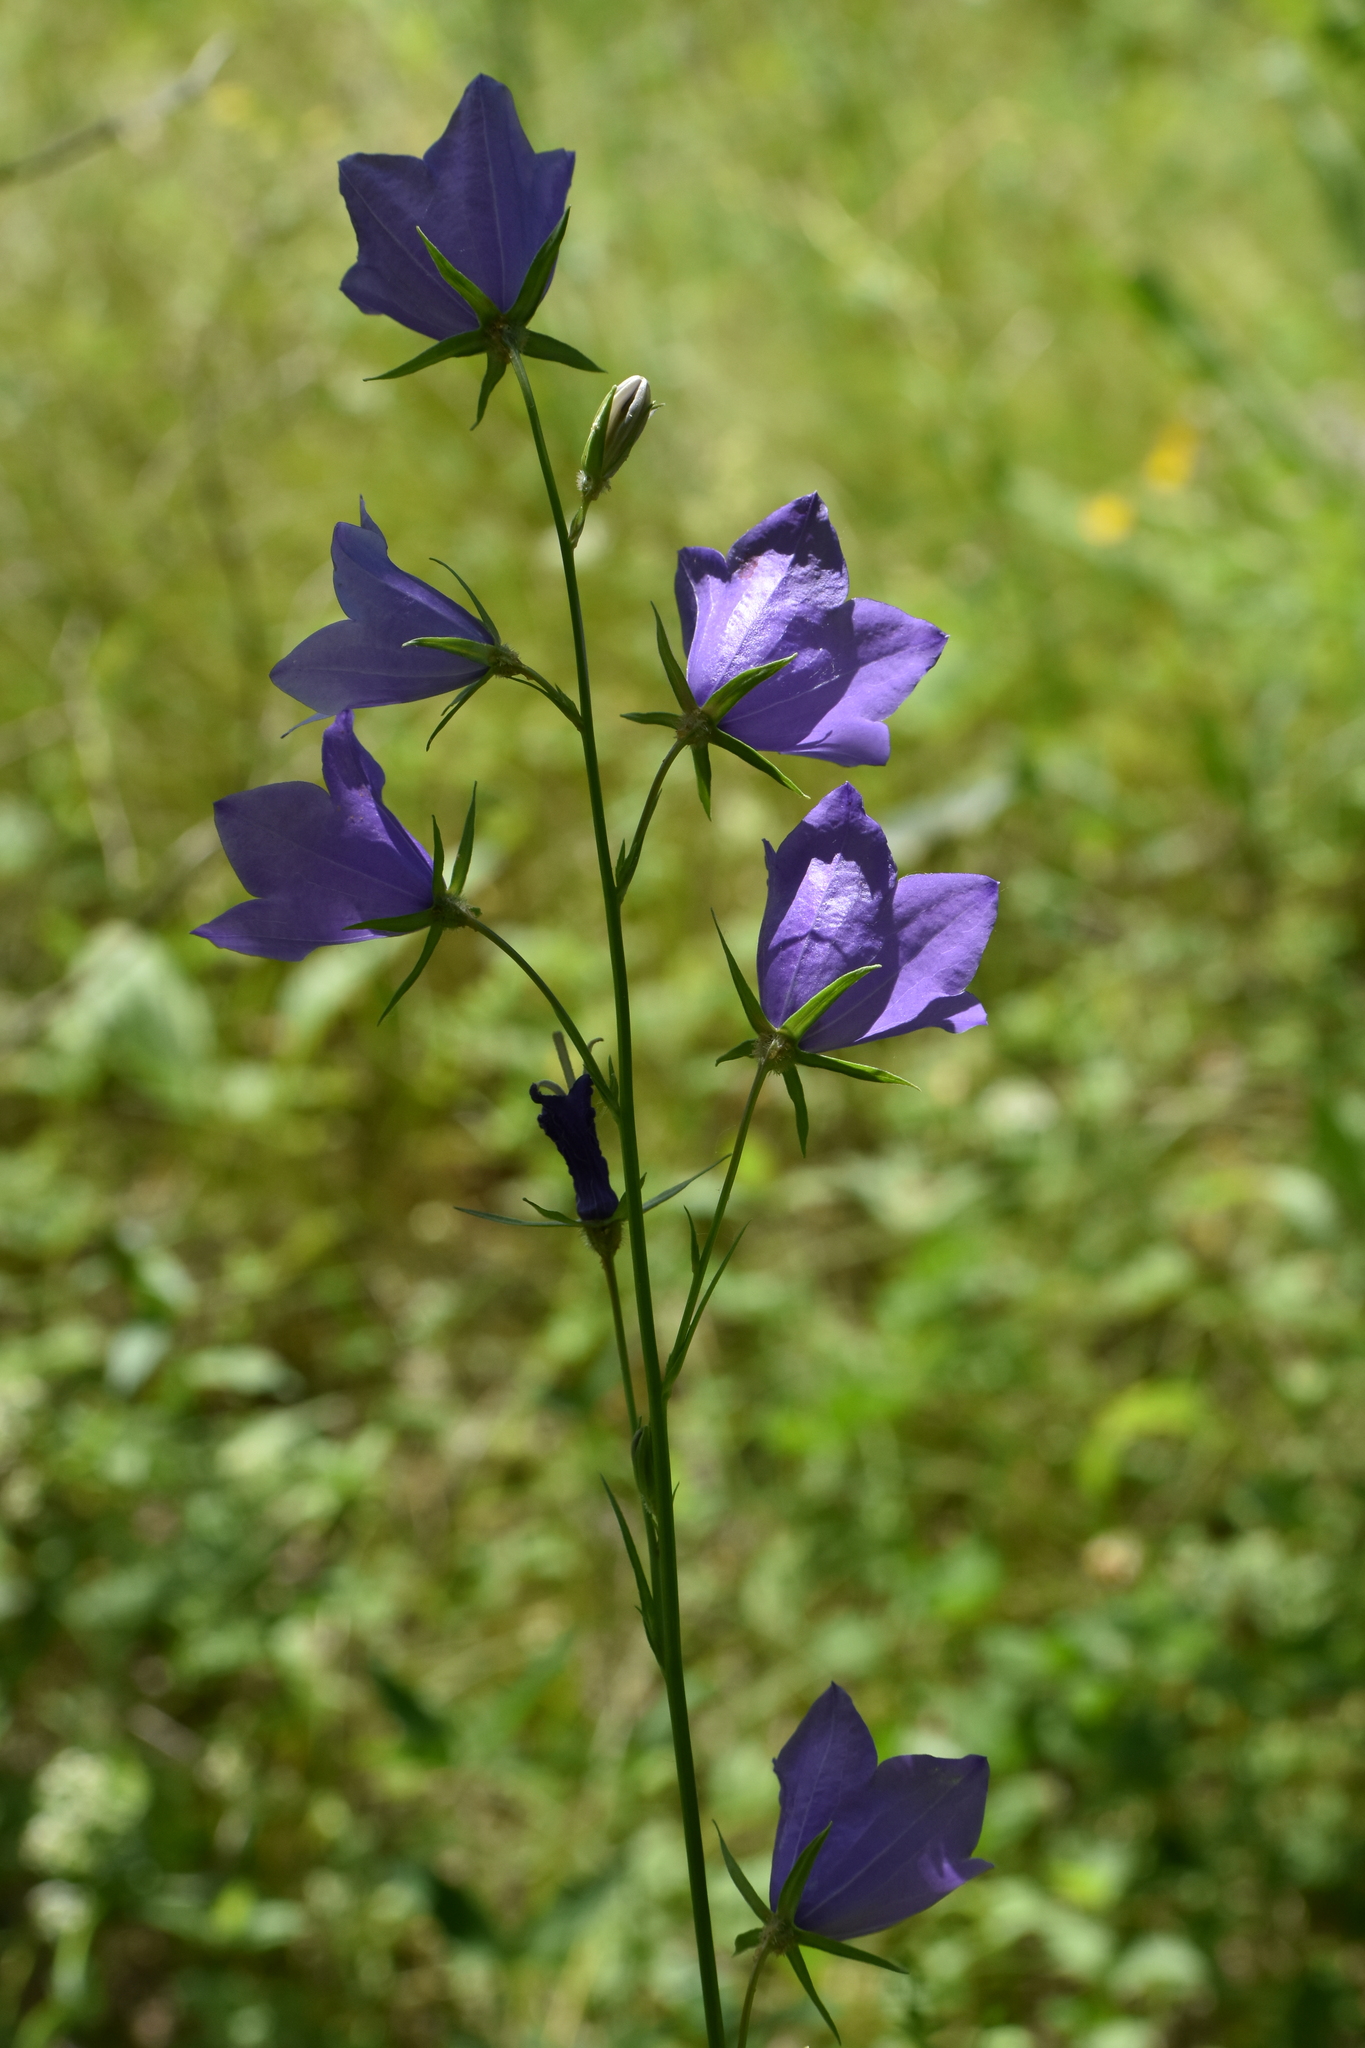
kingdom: Plantae
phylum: Tracheophyta
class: Magnoliopsida
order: Asterales
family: Campanulaceae
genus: Campanula
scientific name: Campanula persicifolia
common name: Peach-leaved bellflower
